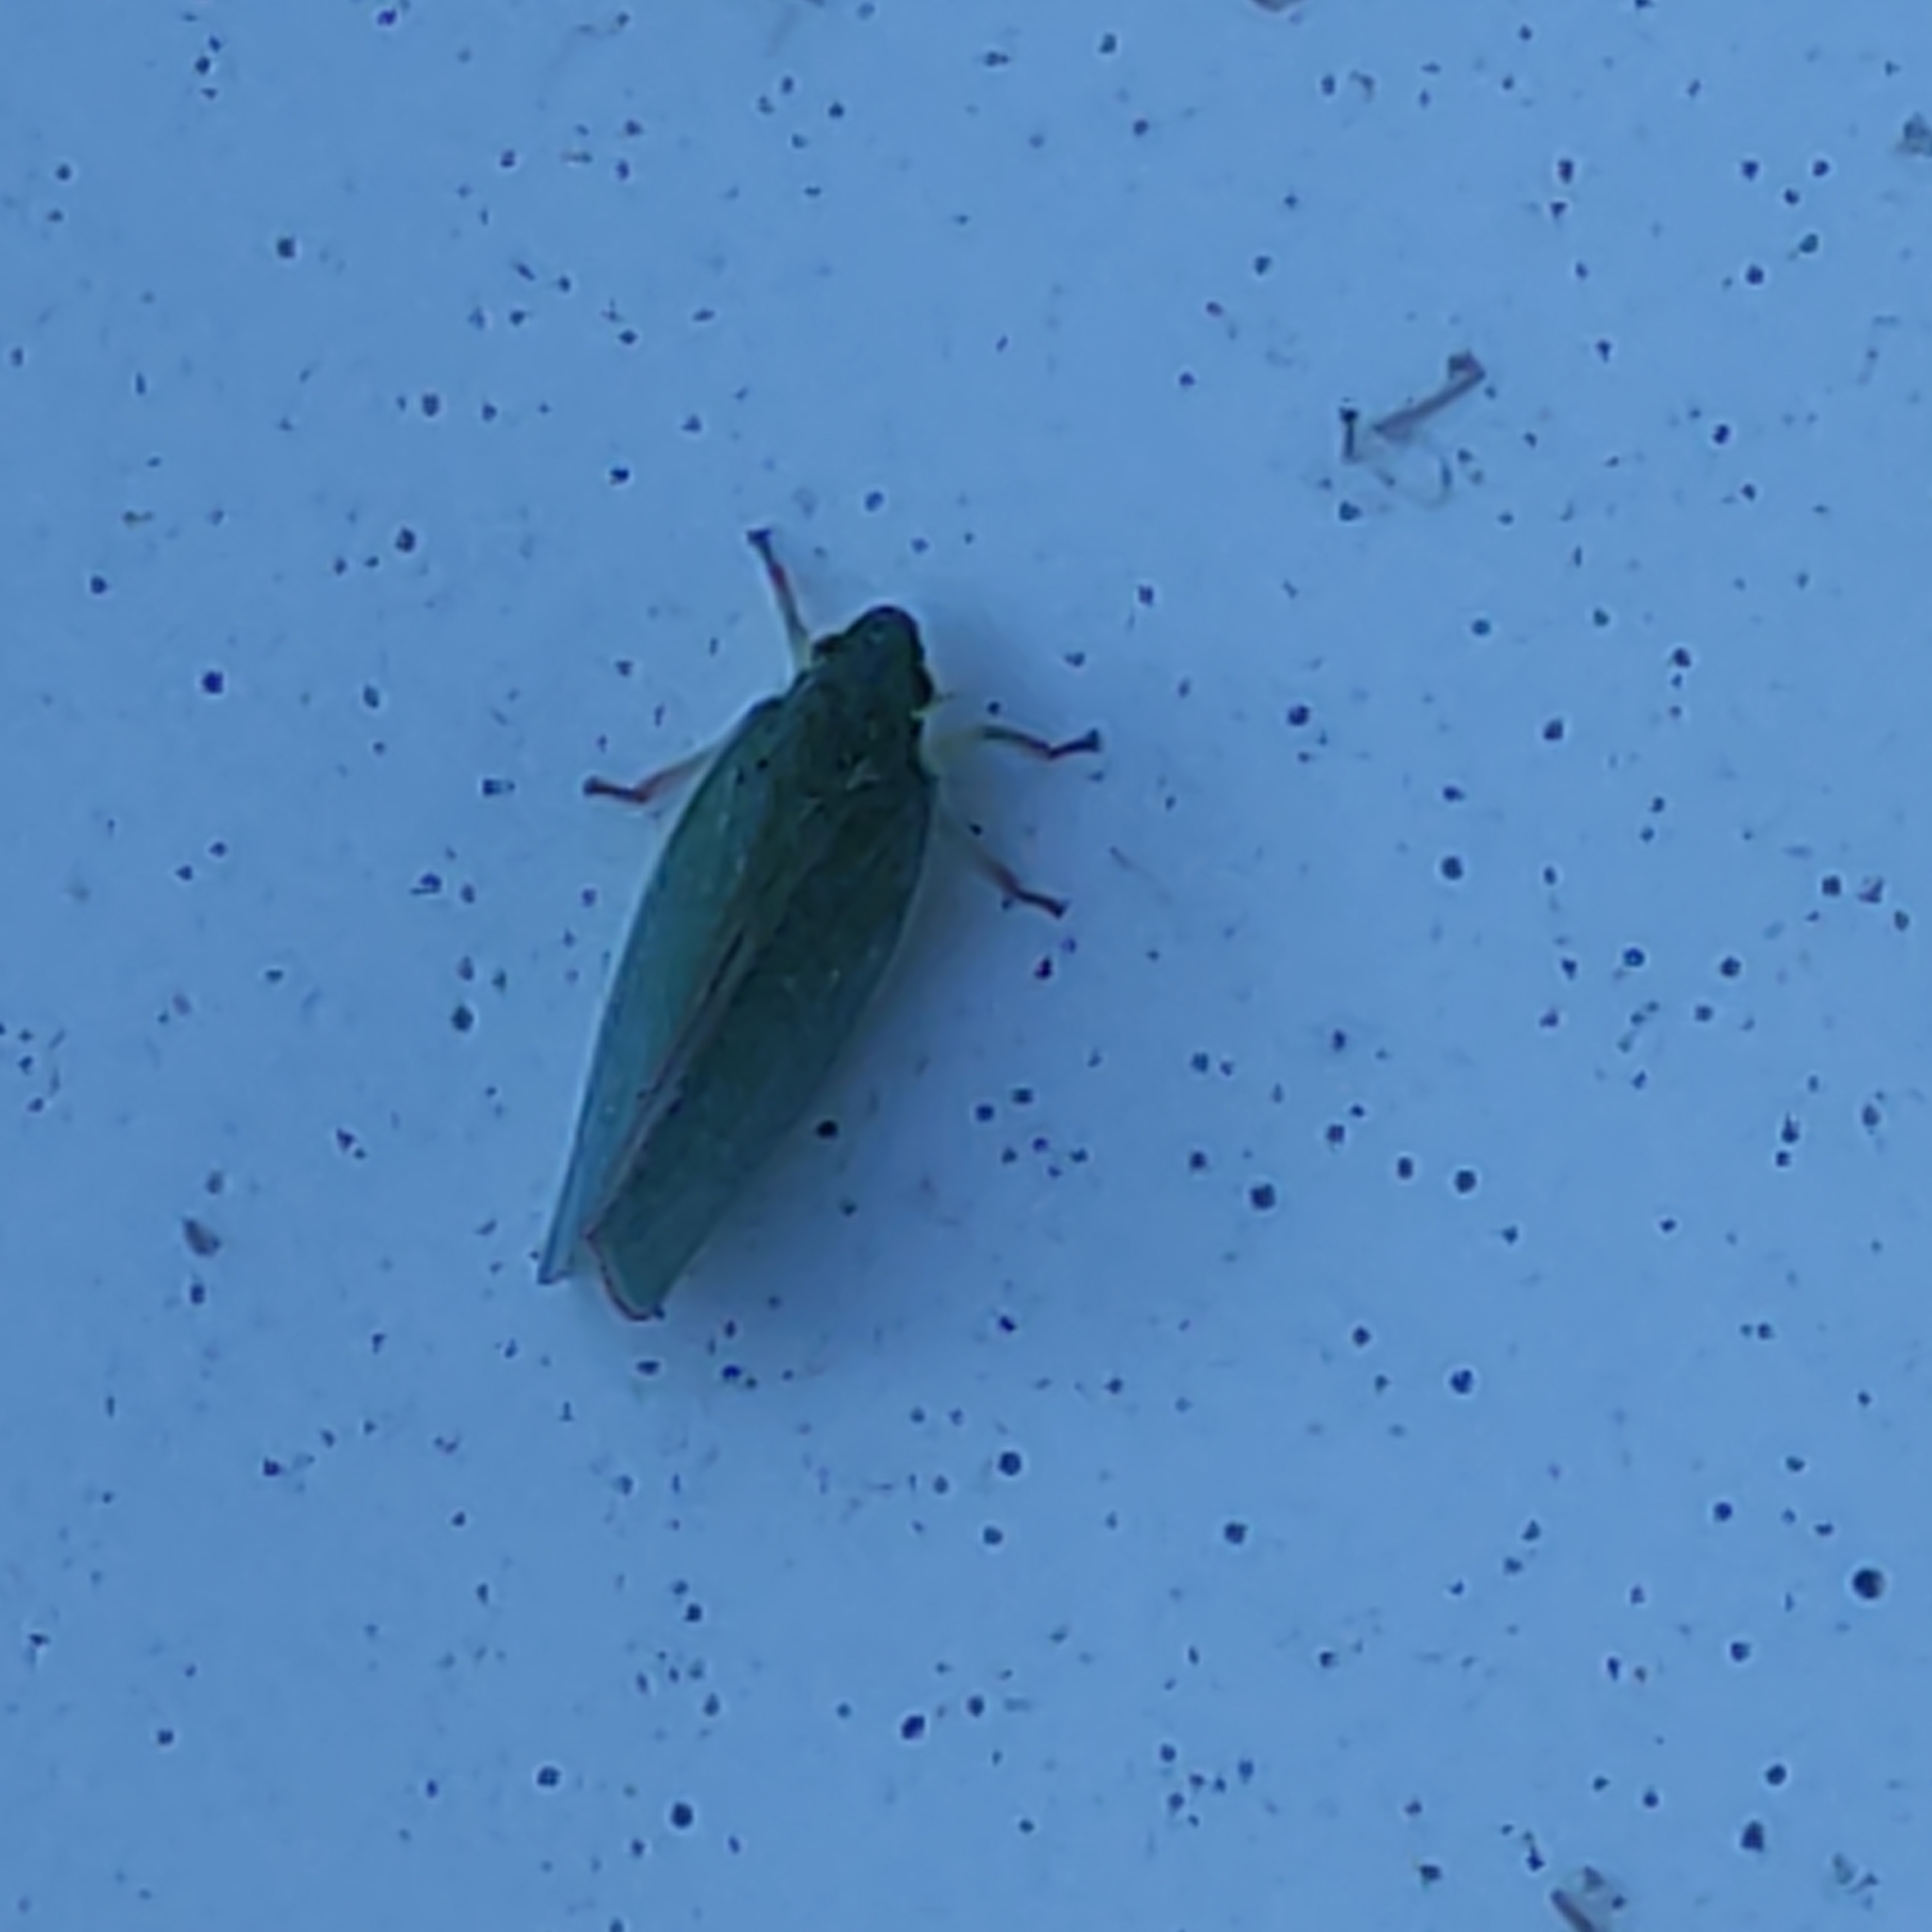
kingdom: Animalia
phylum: Arthropoda
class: Insecta
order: Hemiptera
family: Flatidae
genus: Siphanta
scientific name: Siphanta acuta
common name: Torpedo bug
